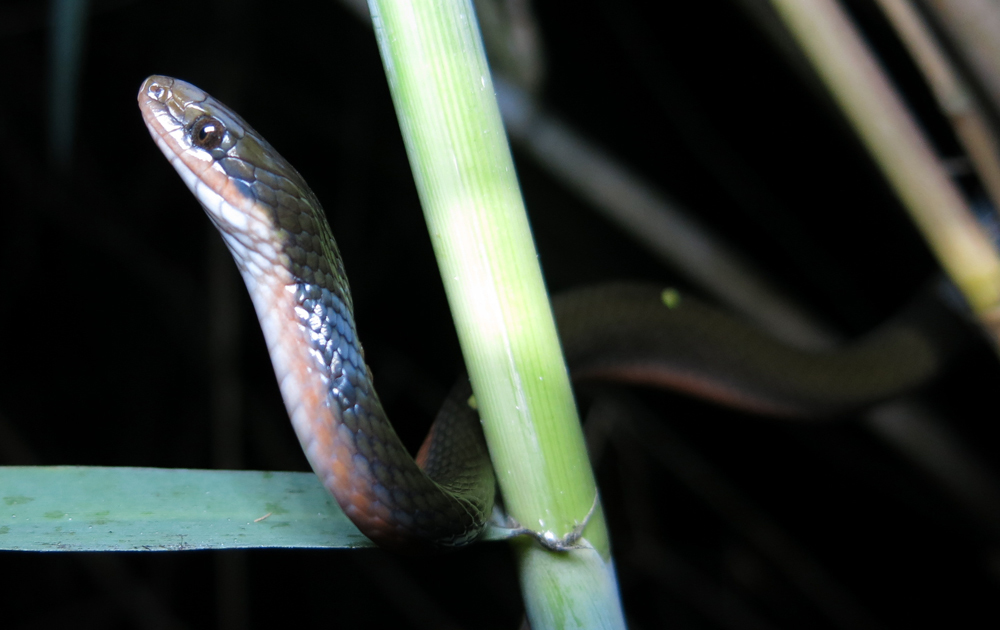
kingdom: Animalia
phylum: Chordata
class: Squamata
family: Lamprophiidae
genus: Lycodonomorphus
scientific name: Lycodonomorphus rufulus
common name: Brown water snake
